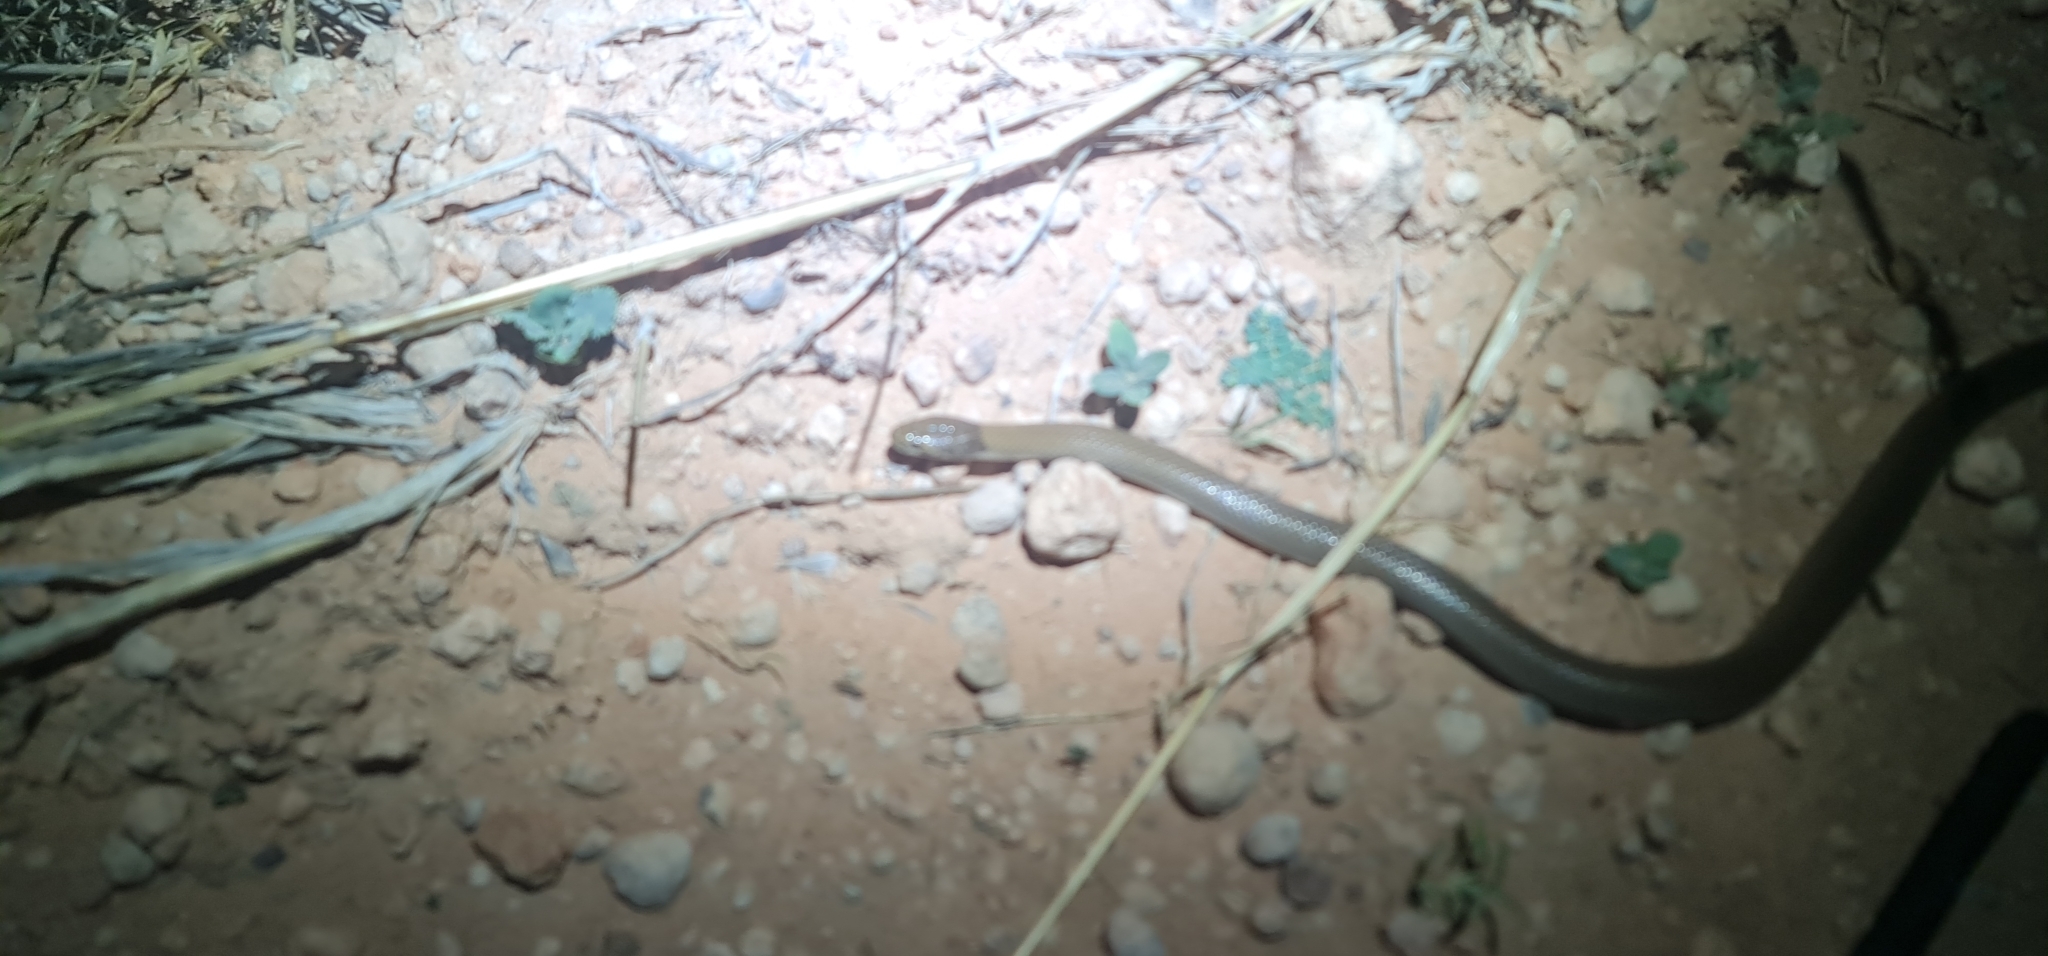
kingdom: Animalia
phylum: Chordata
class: Squamata
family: Elapidae
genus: Suta
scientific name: Suta suta
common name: Curl snake
